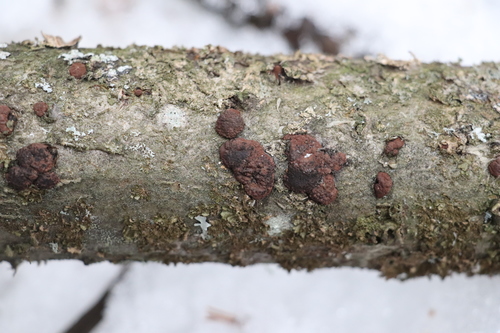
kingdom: Fungi
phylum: Ascomycota
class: Sordariomycetes
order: Xylariales
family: Hypoxylaceae
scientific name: Hypoxylaceae
